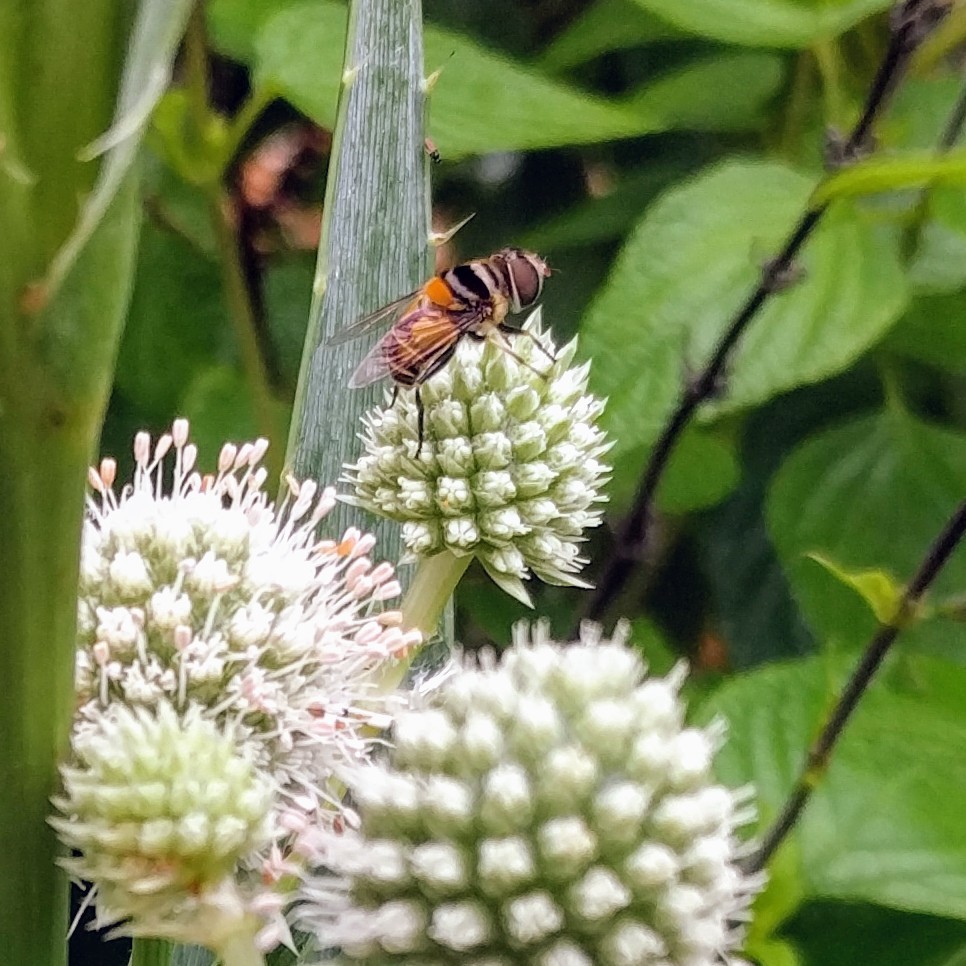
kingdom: Animalia
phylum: Arthropoda
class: Insecta
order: Diptera
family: Syrphidae
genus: Palpada
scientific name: Palpada agrorum
